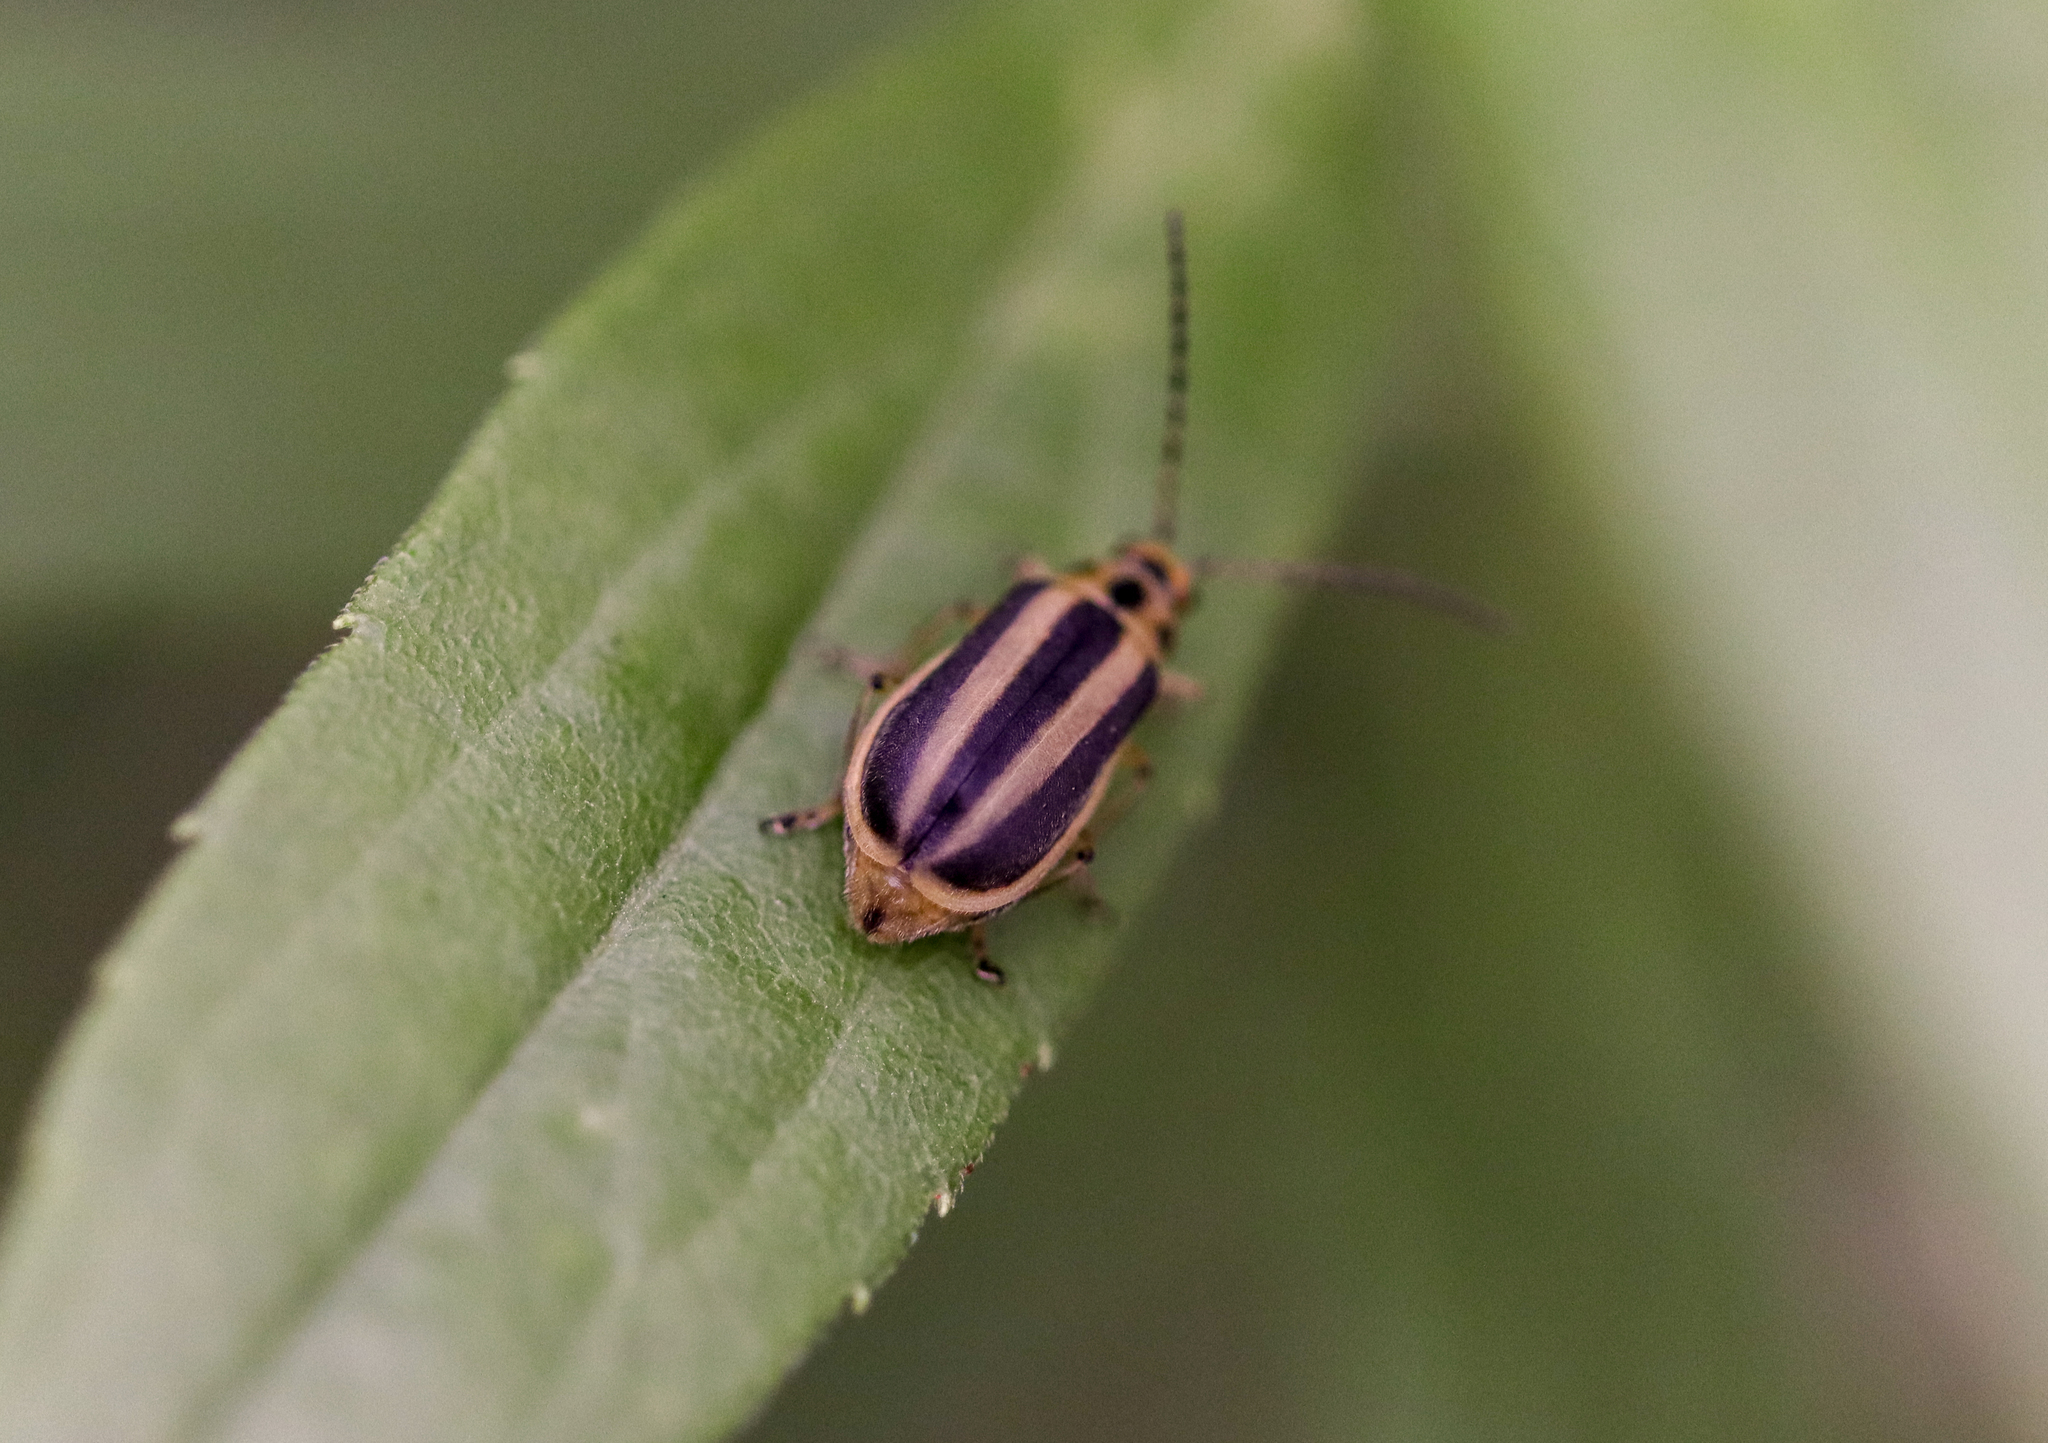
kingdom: Animalia
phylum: Arthropoda
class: Insecta
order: Coleoptera
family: Chrysomelidae
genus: Trirhabda
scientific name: Trirhabda canadensis
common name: Goldenrod leaf beetle
